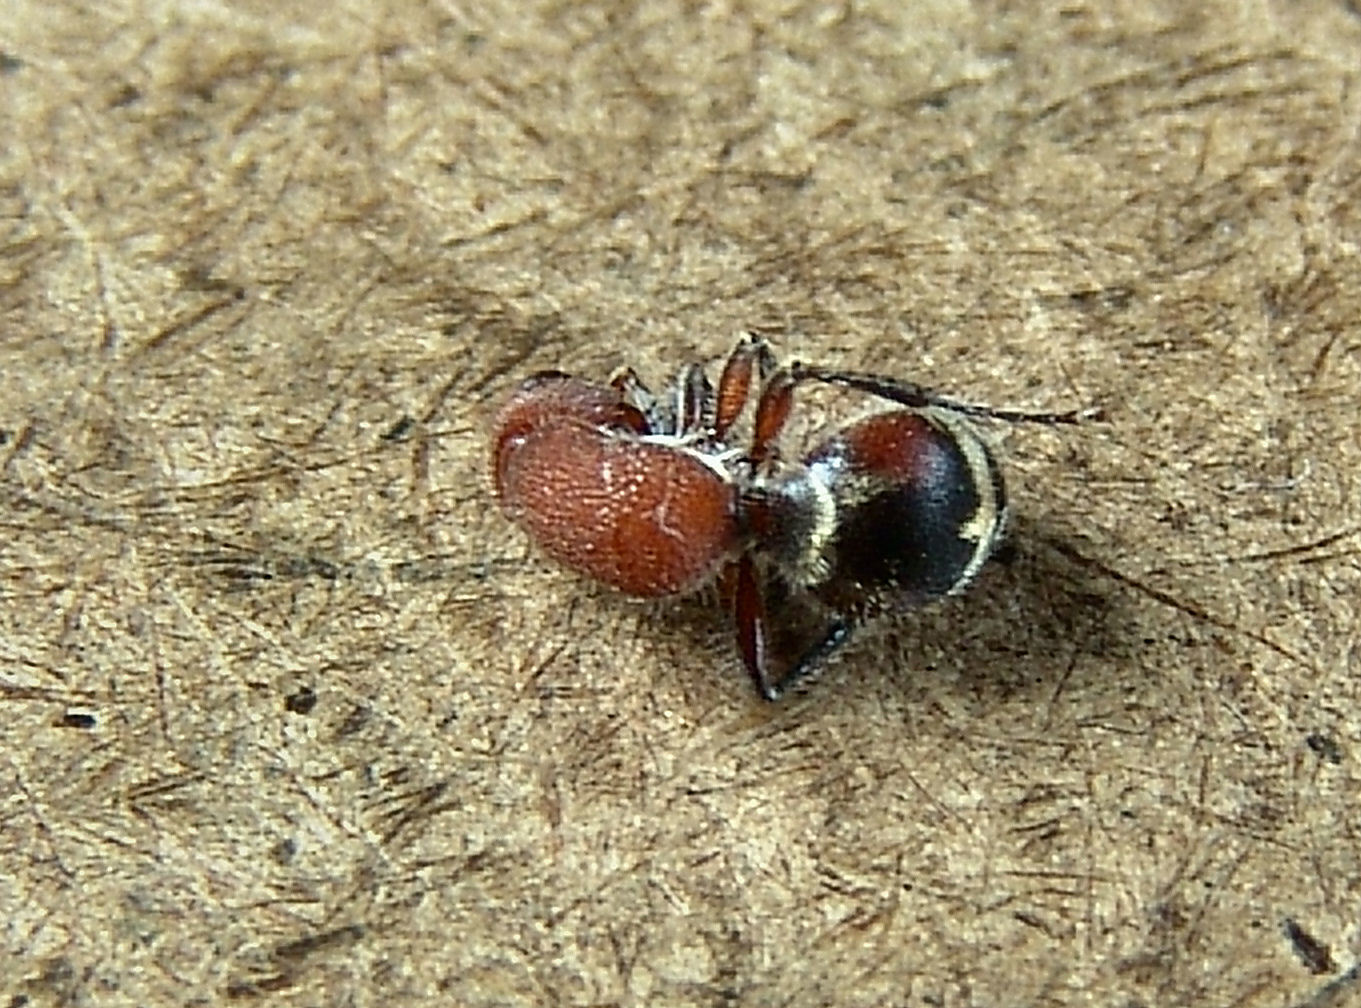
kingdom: Animalia
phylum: Arthropoda
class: Insecta
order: Hymenoptera
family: Mutillidae
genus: Timulla
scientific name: Timulla
